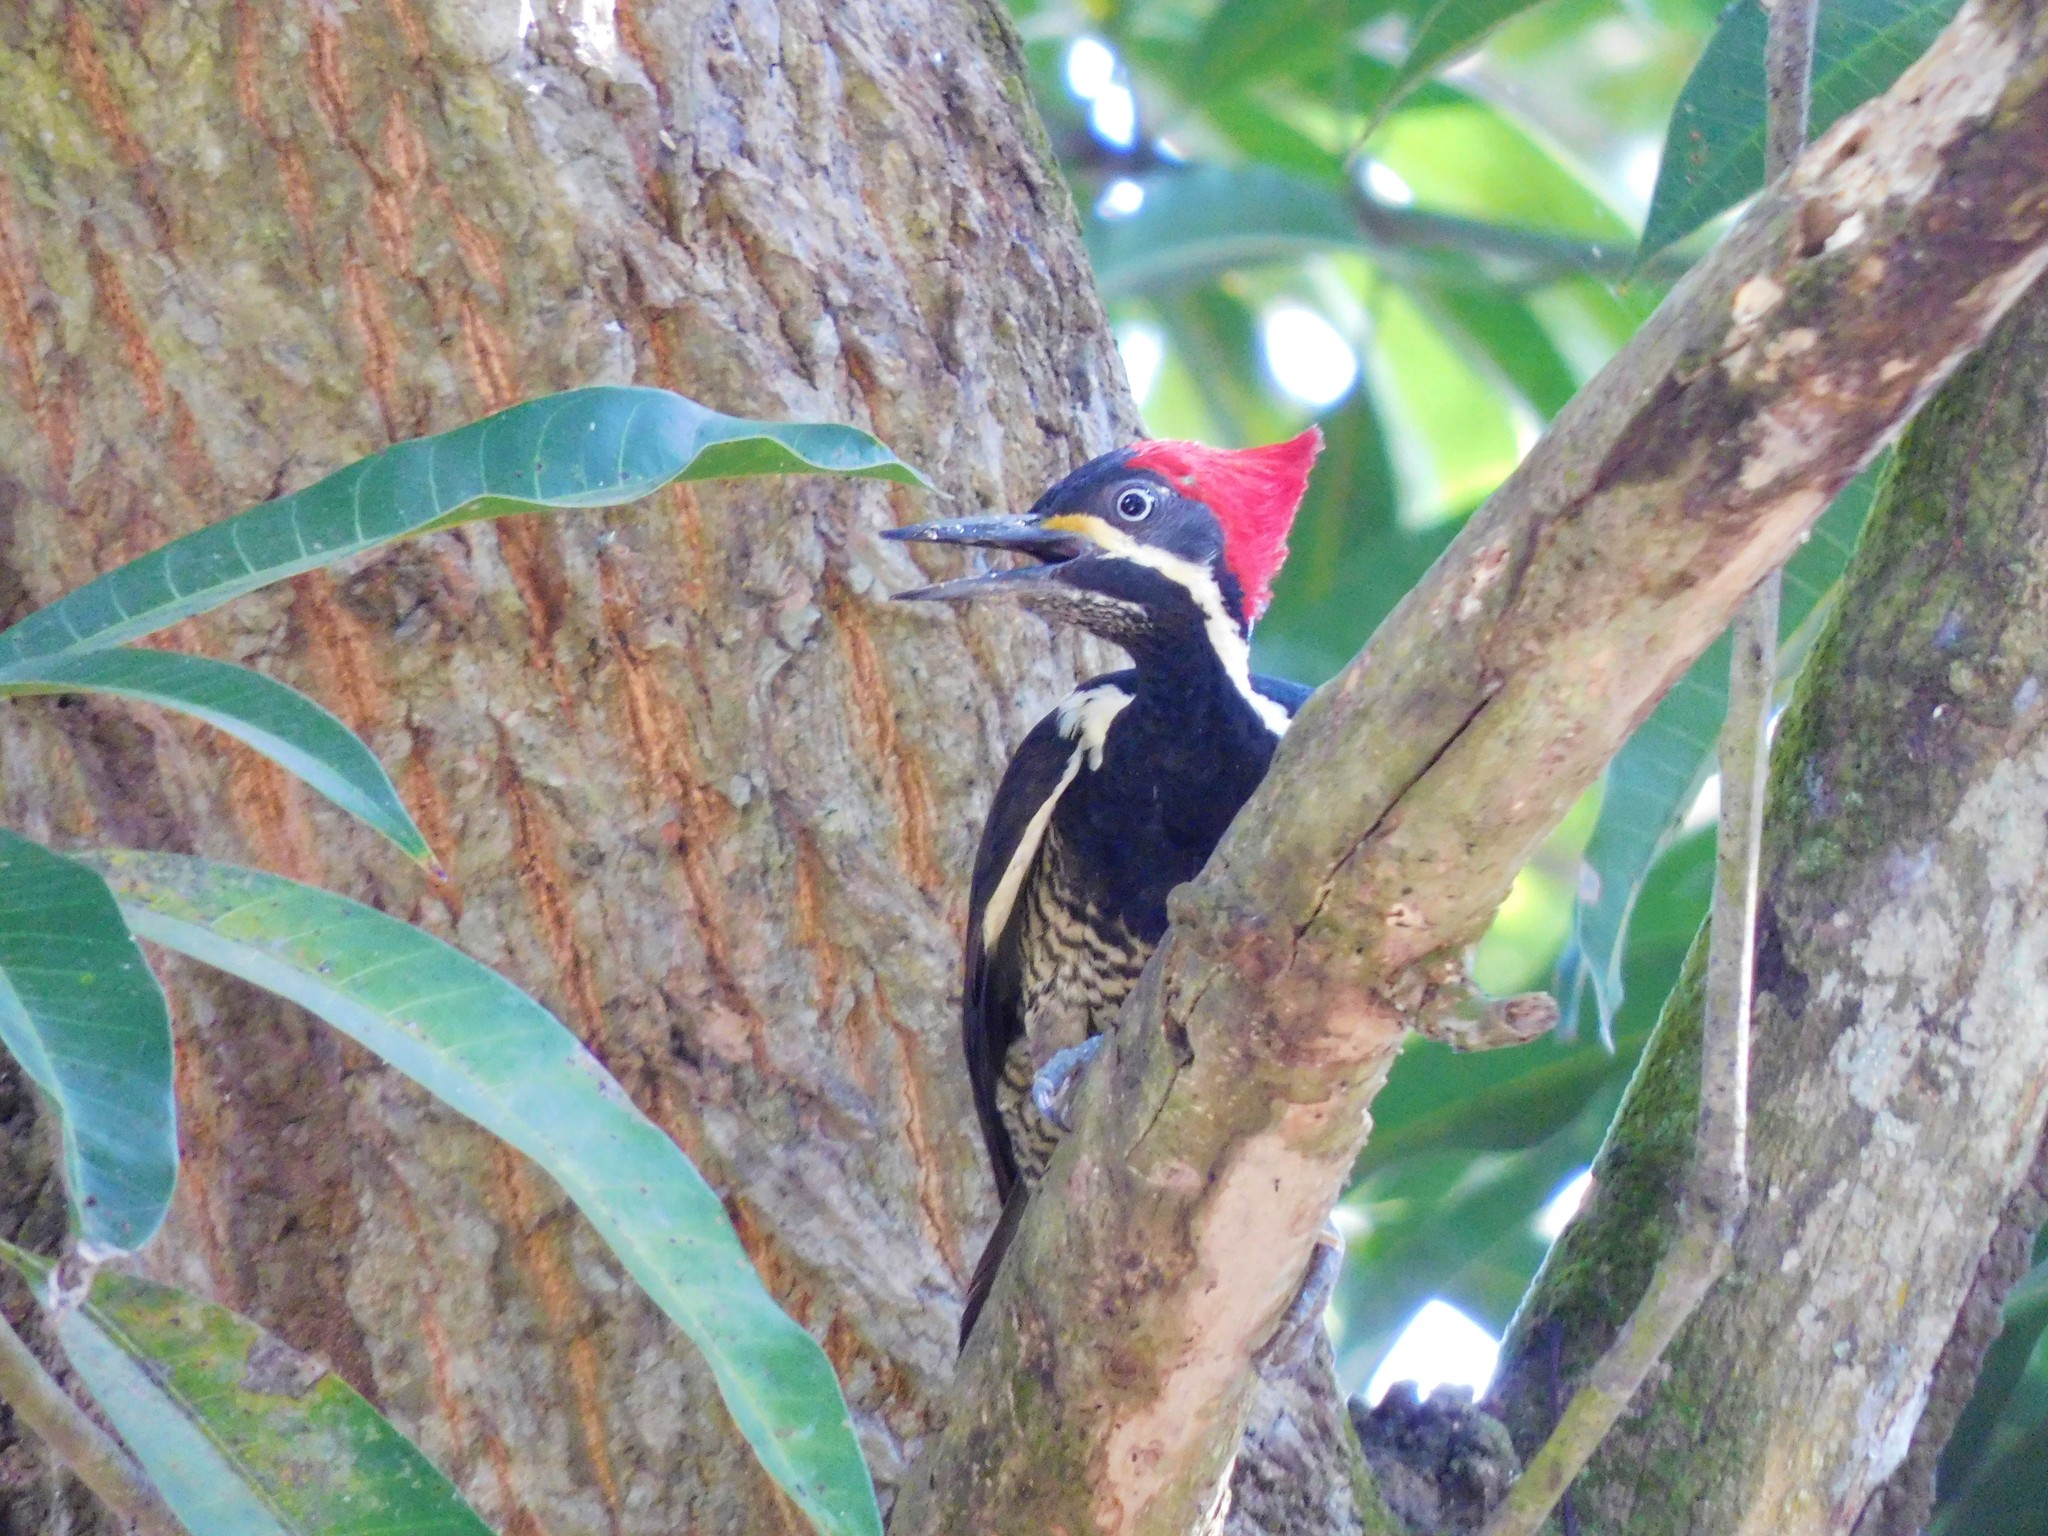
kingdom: Animalia
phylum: Chordata
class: Aves
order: Piciformes
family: Picidae
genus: Dryocopus
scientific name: Dryocopus lineatus
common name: Lineated woodpecker
